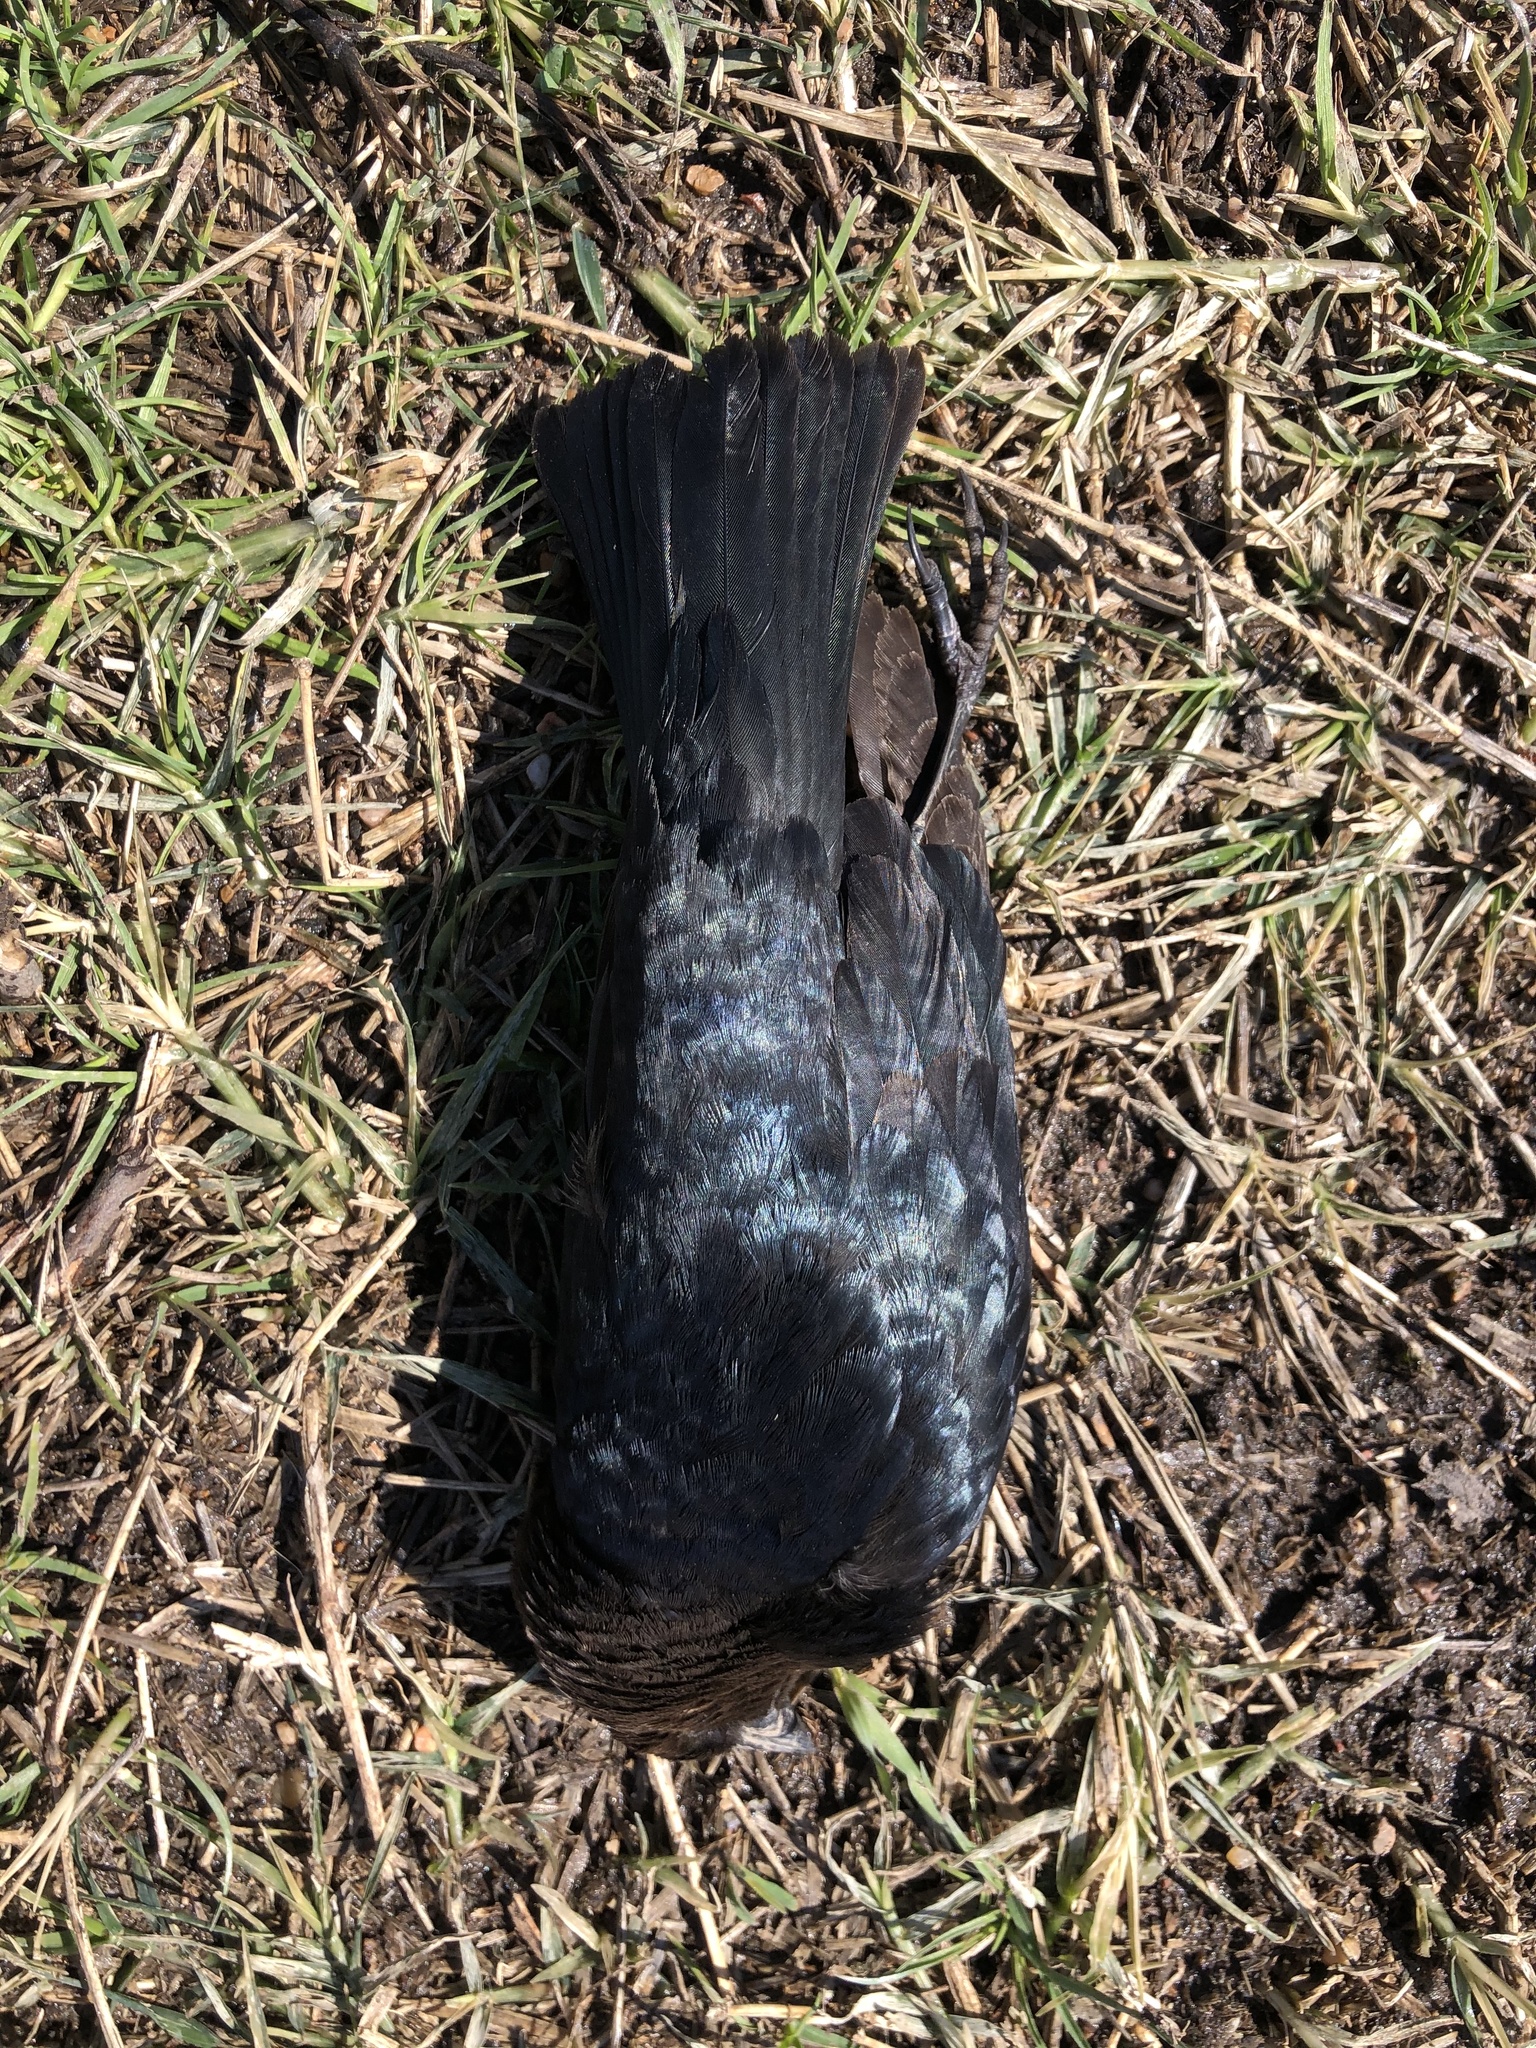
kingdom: Animalia
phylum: Chordata
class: Aves
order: Passeriformes
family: Icteridae
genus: Molothrus
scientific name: Molothrus ater
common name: Brown-headed cowbird
